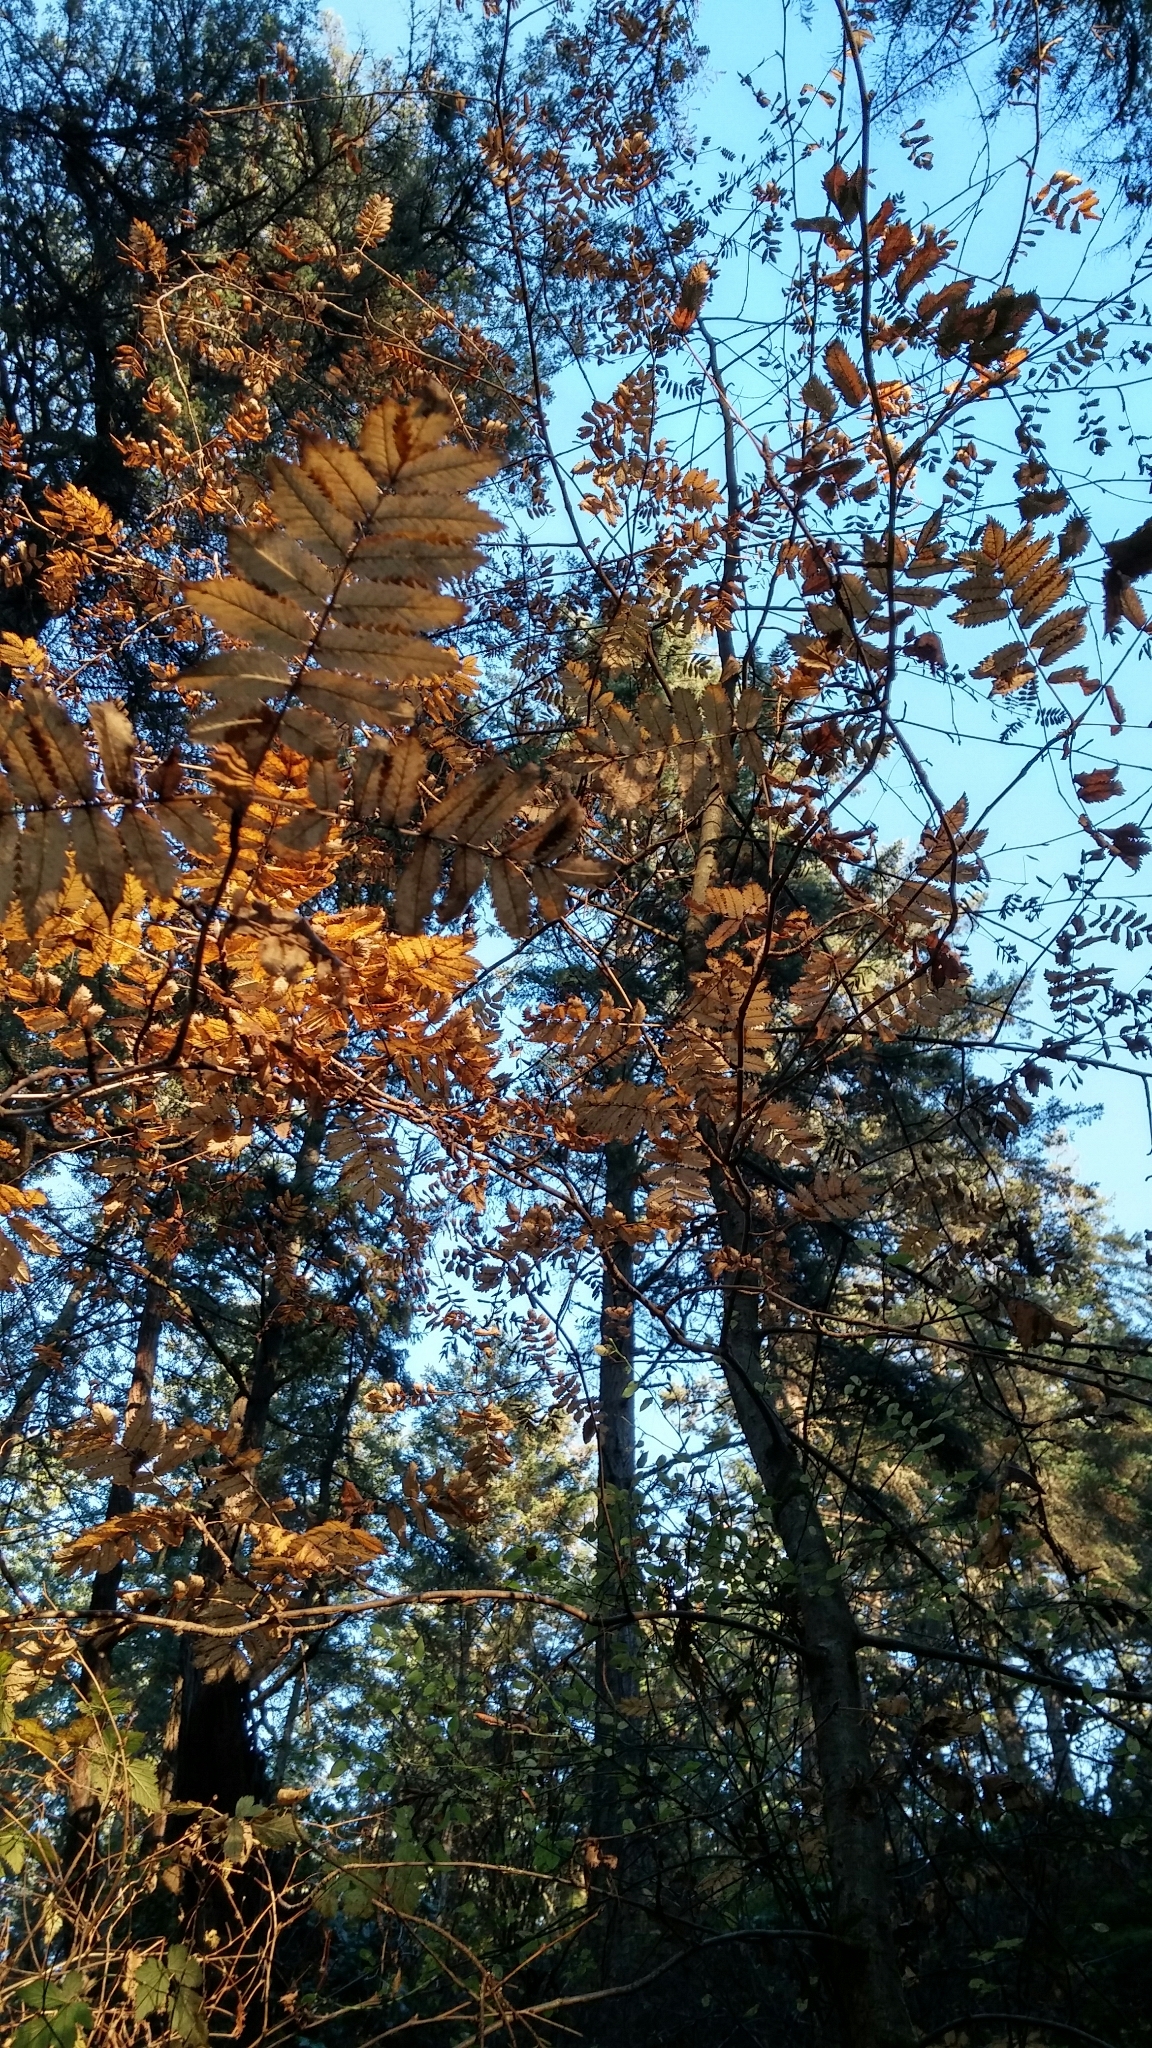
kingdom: Plantae
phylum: Tracheophyta
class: Magnoliopsida
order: Rosales
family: Rosaceae
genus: Sorbus
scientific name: Sorbus aucuparia
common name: Rowan
